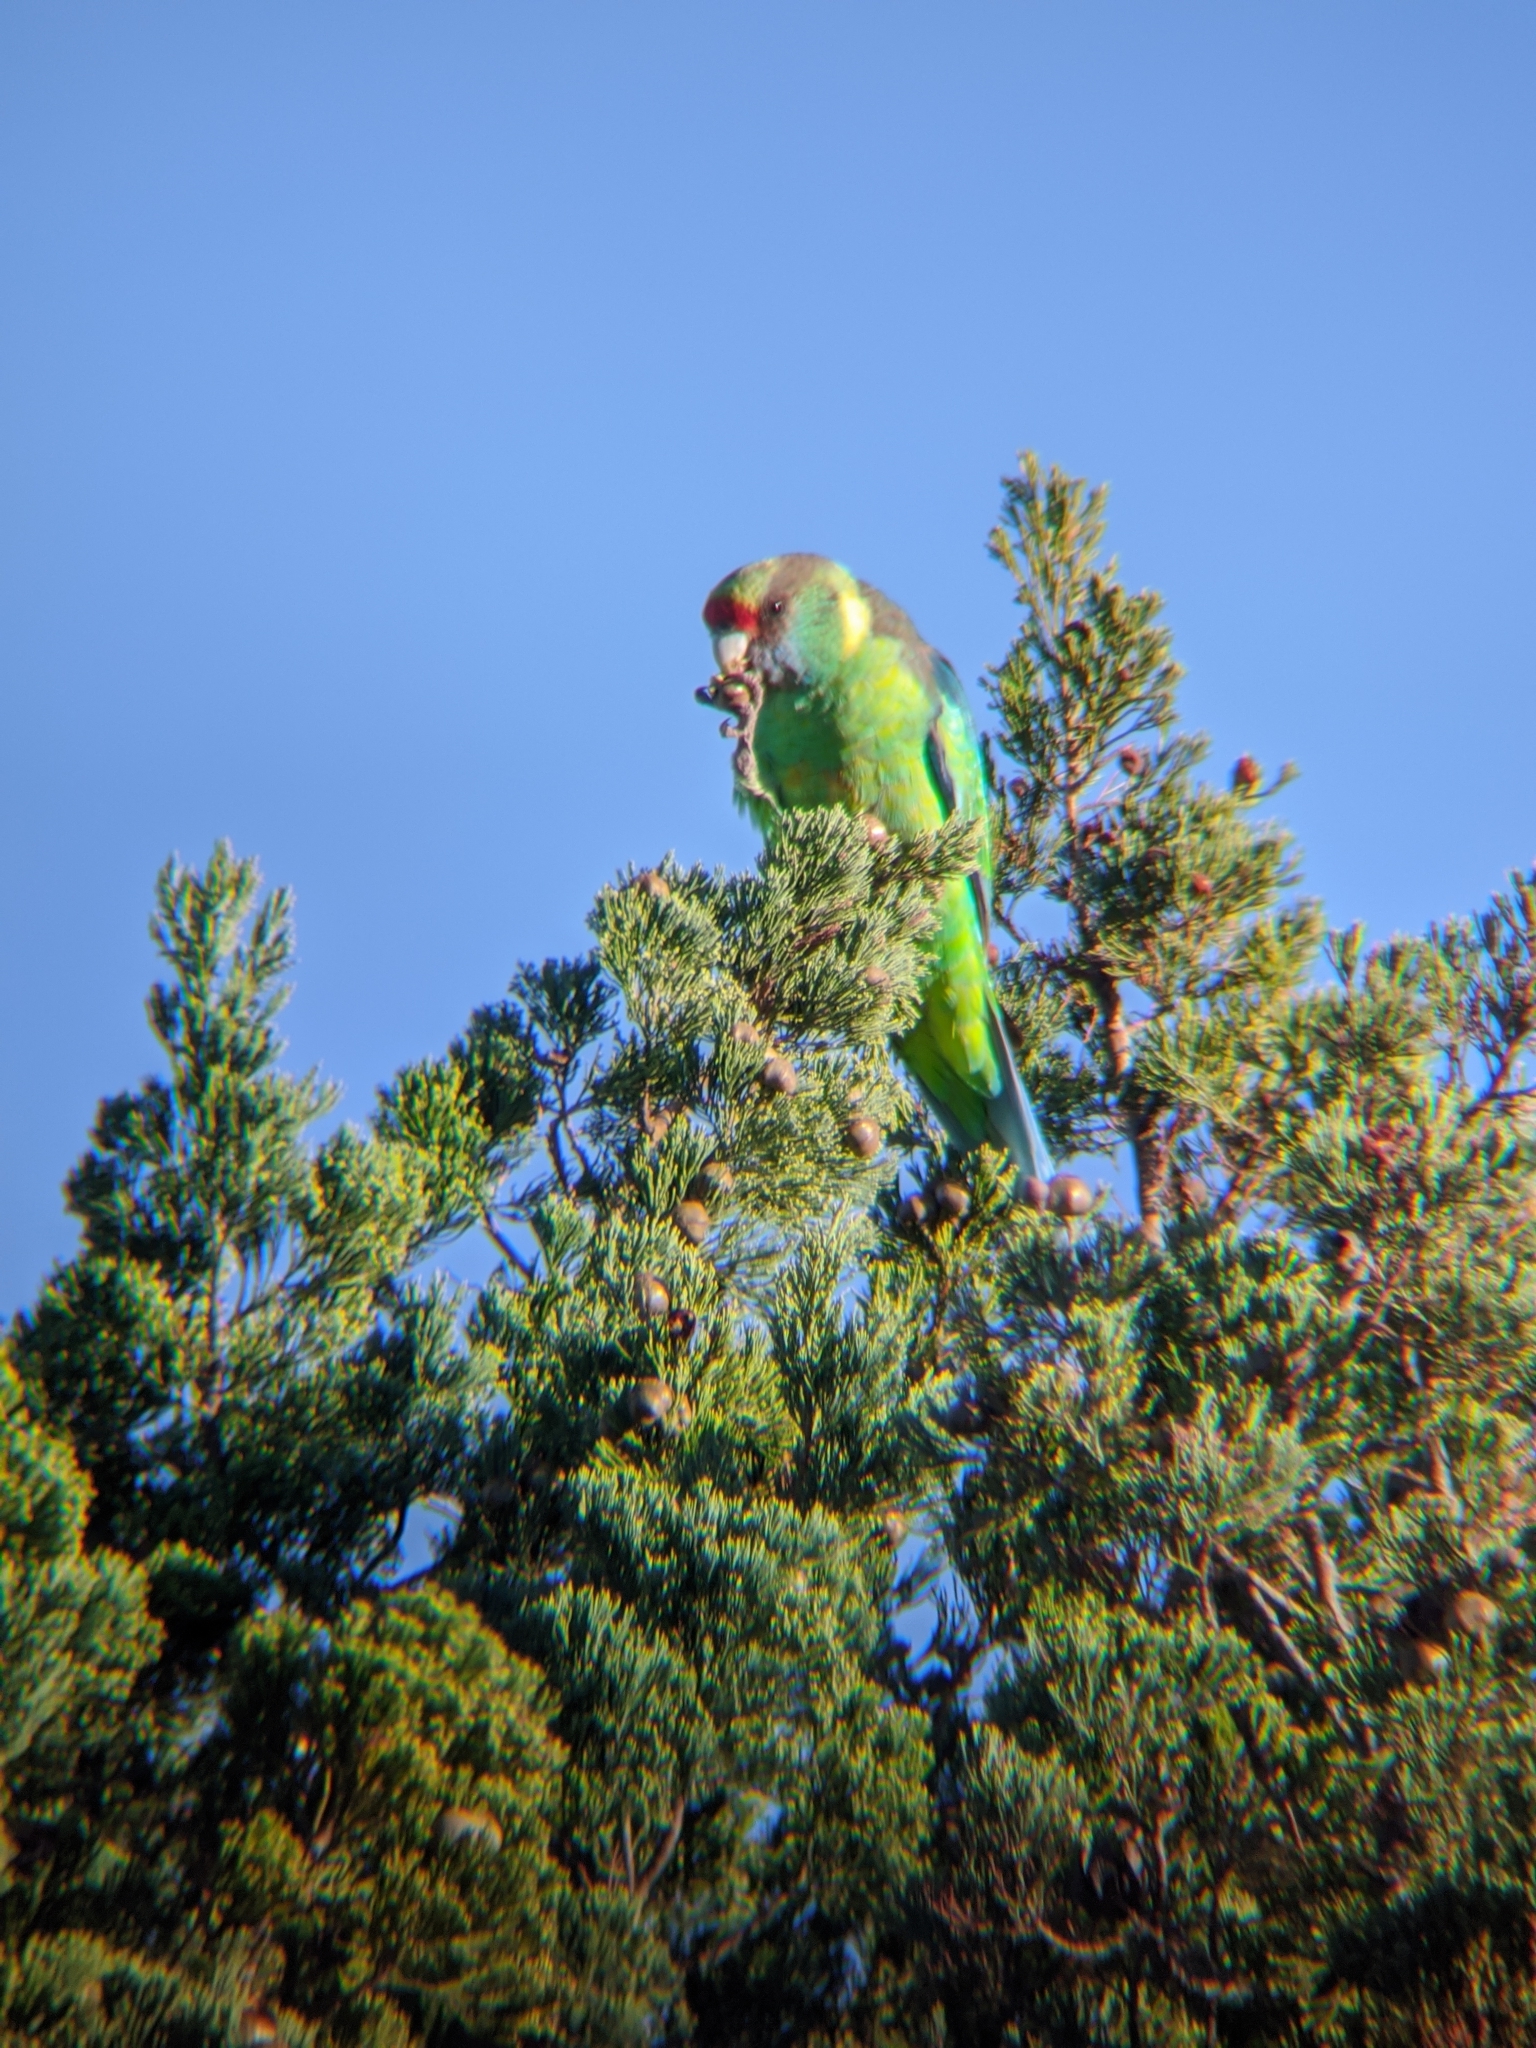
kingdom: Animalia
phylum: Chordata
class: Aves
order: Psittaciformes
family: Psittacidae
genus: Barnardius
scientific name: Barnardius zonarius
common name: Australian ringneck
